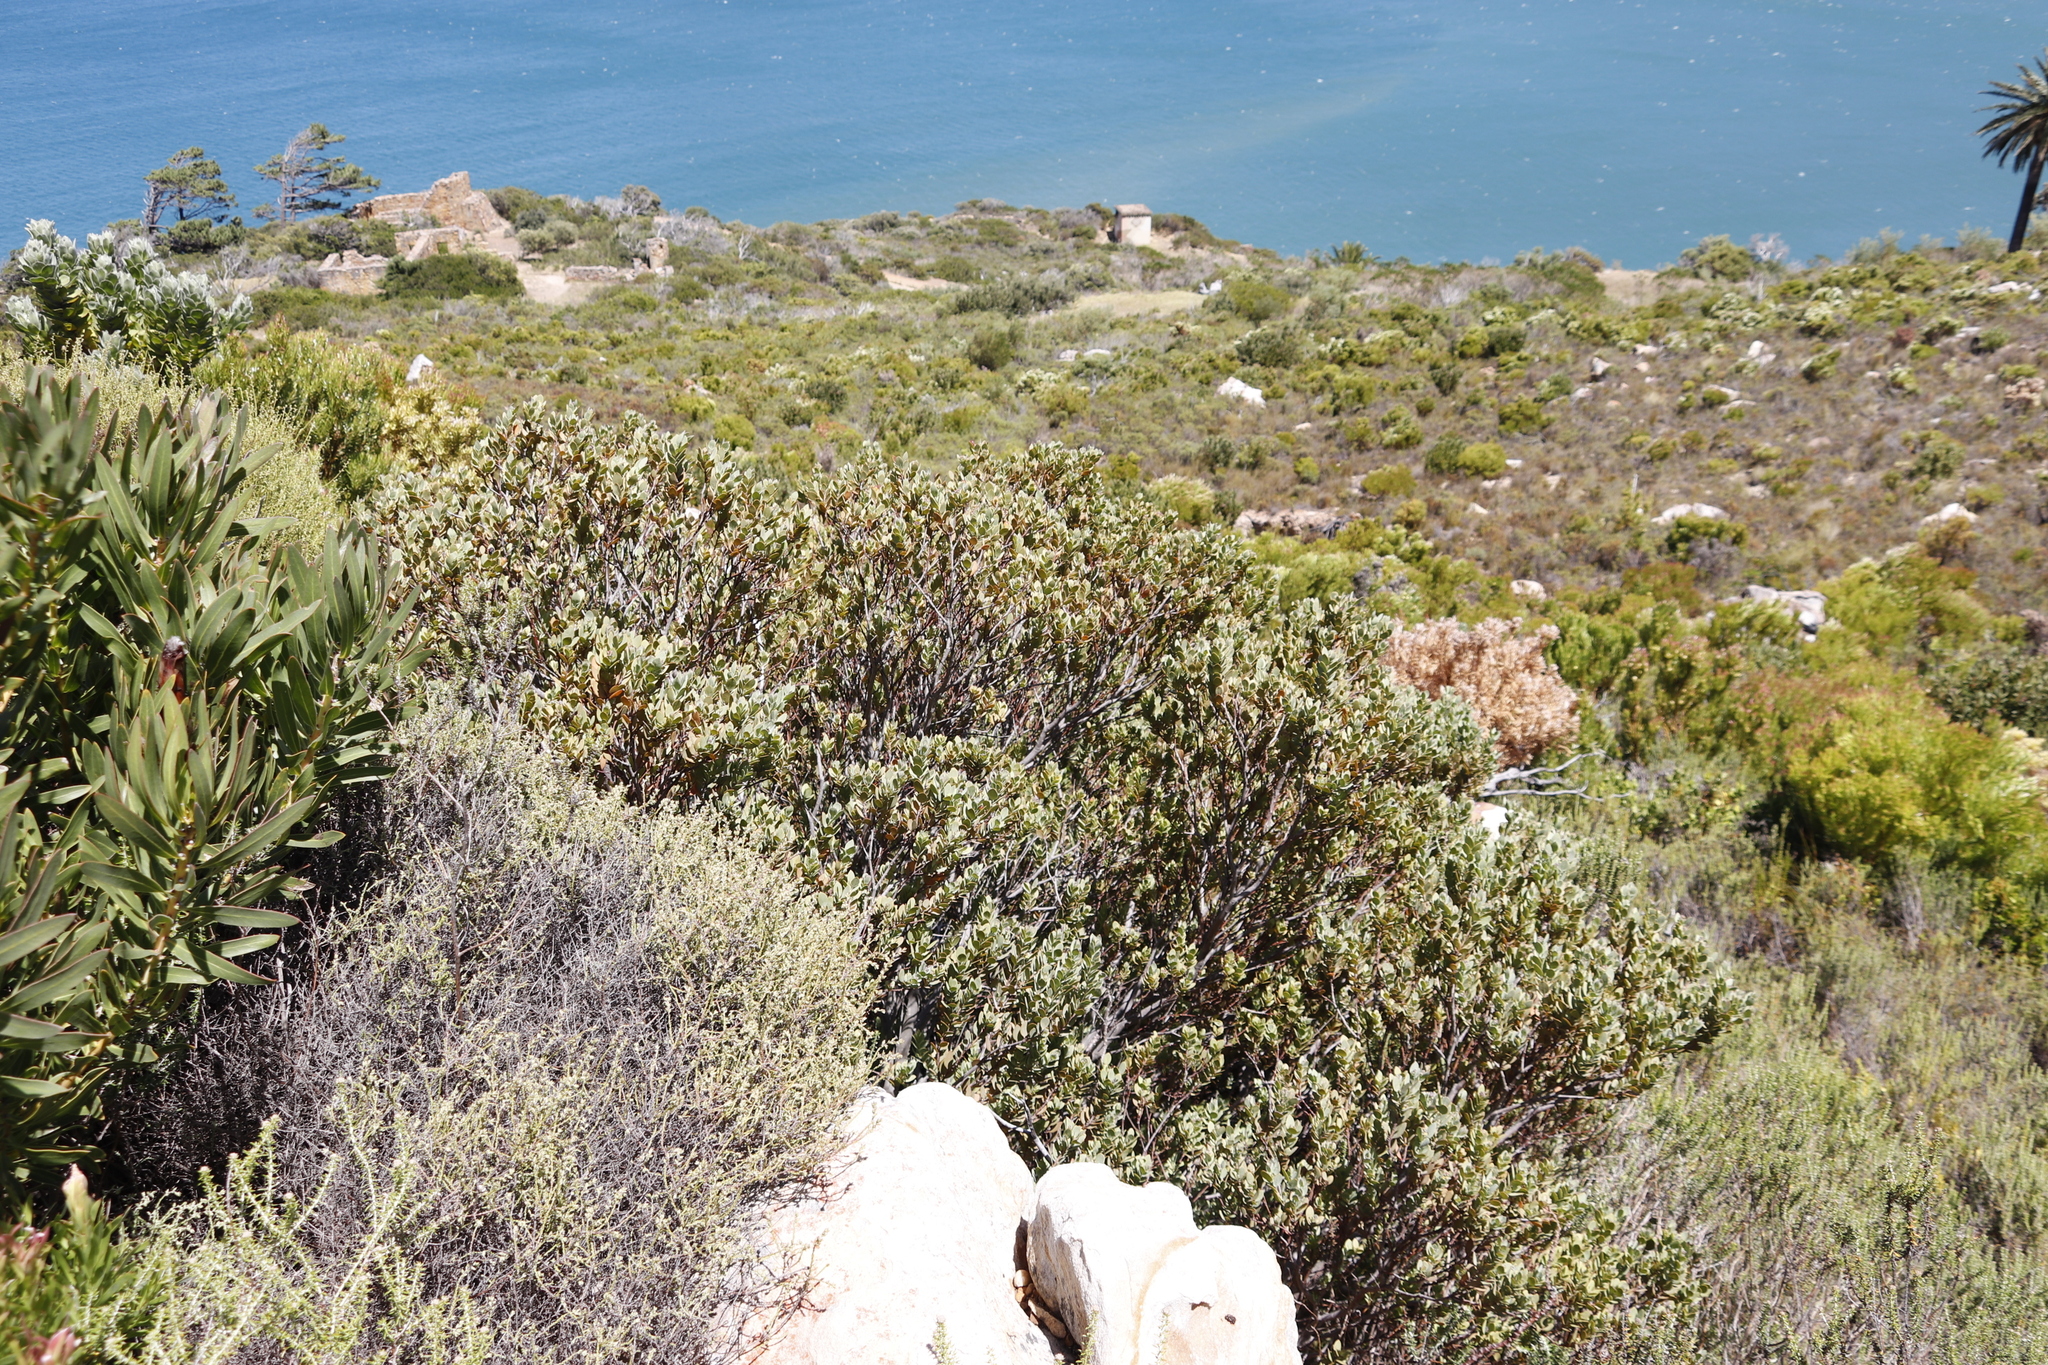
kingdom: Plantae
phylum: Tracheophyta
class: Magnoliopsida
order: Santalales
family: Santalaceae
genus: Osyris
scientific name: Osyris compressa
